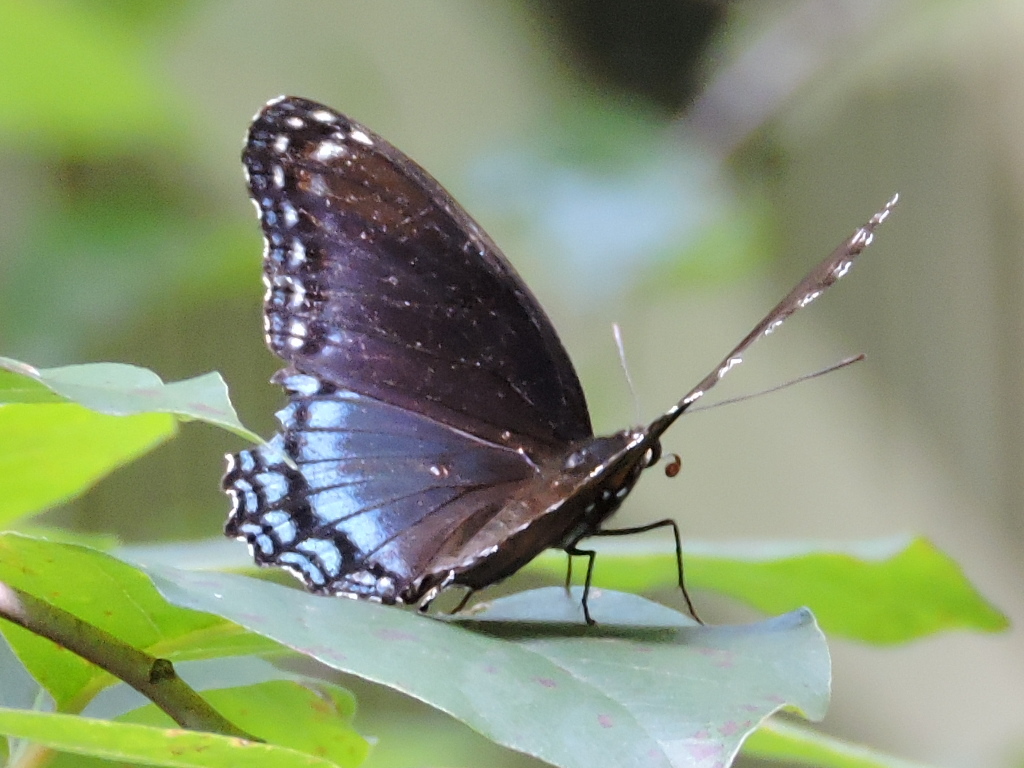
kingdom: Animalia
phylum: Arthropoda
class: Insecta
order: Lepidoptera
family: Nymphalidae
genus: Limenitis
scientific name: Limenitis astyanax
